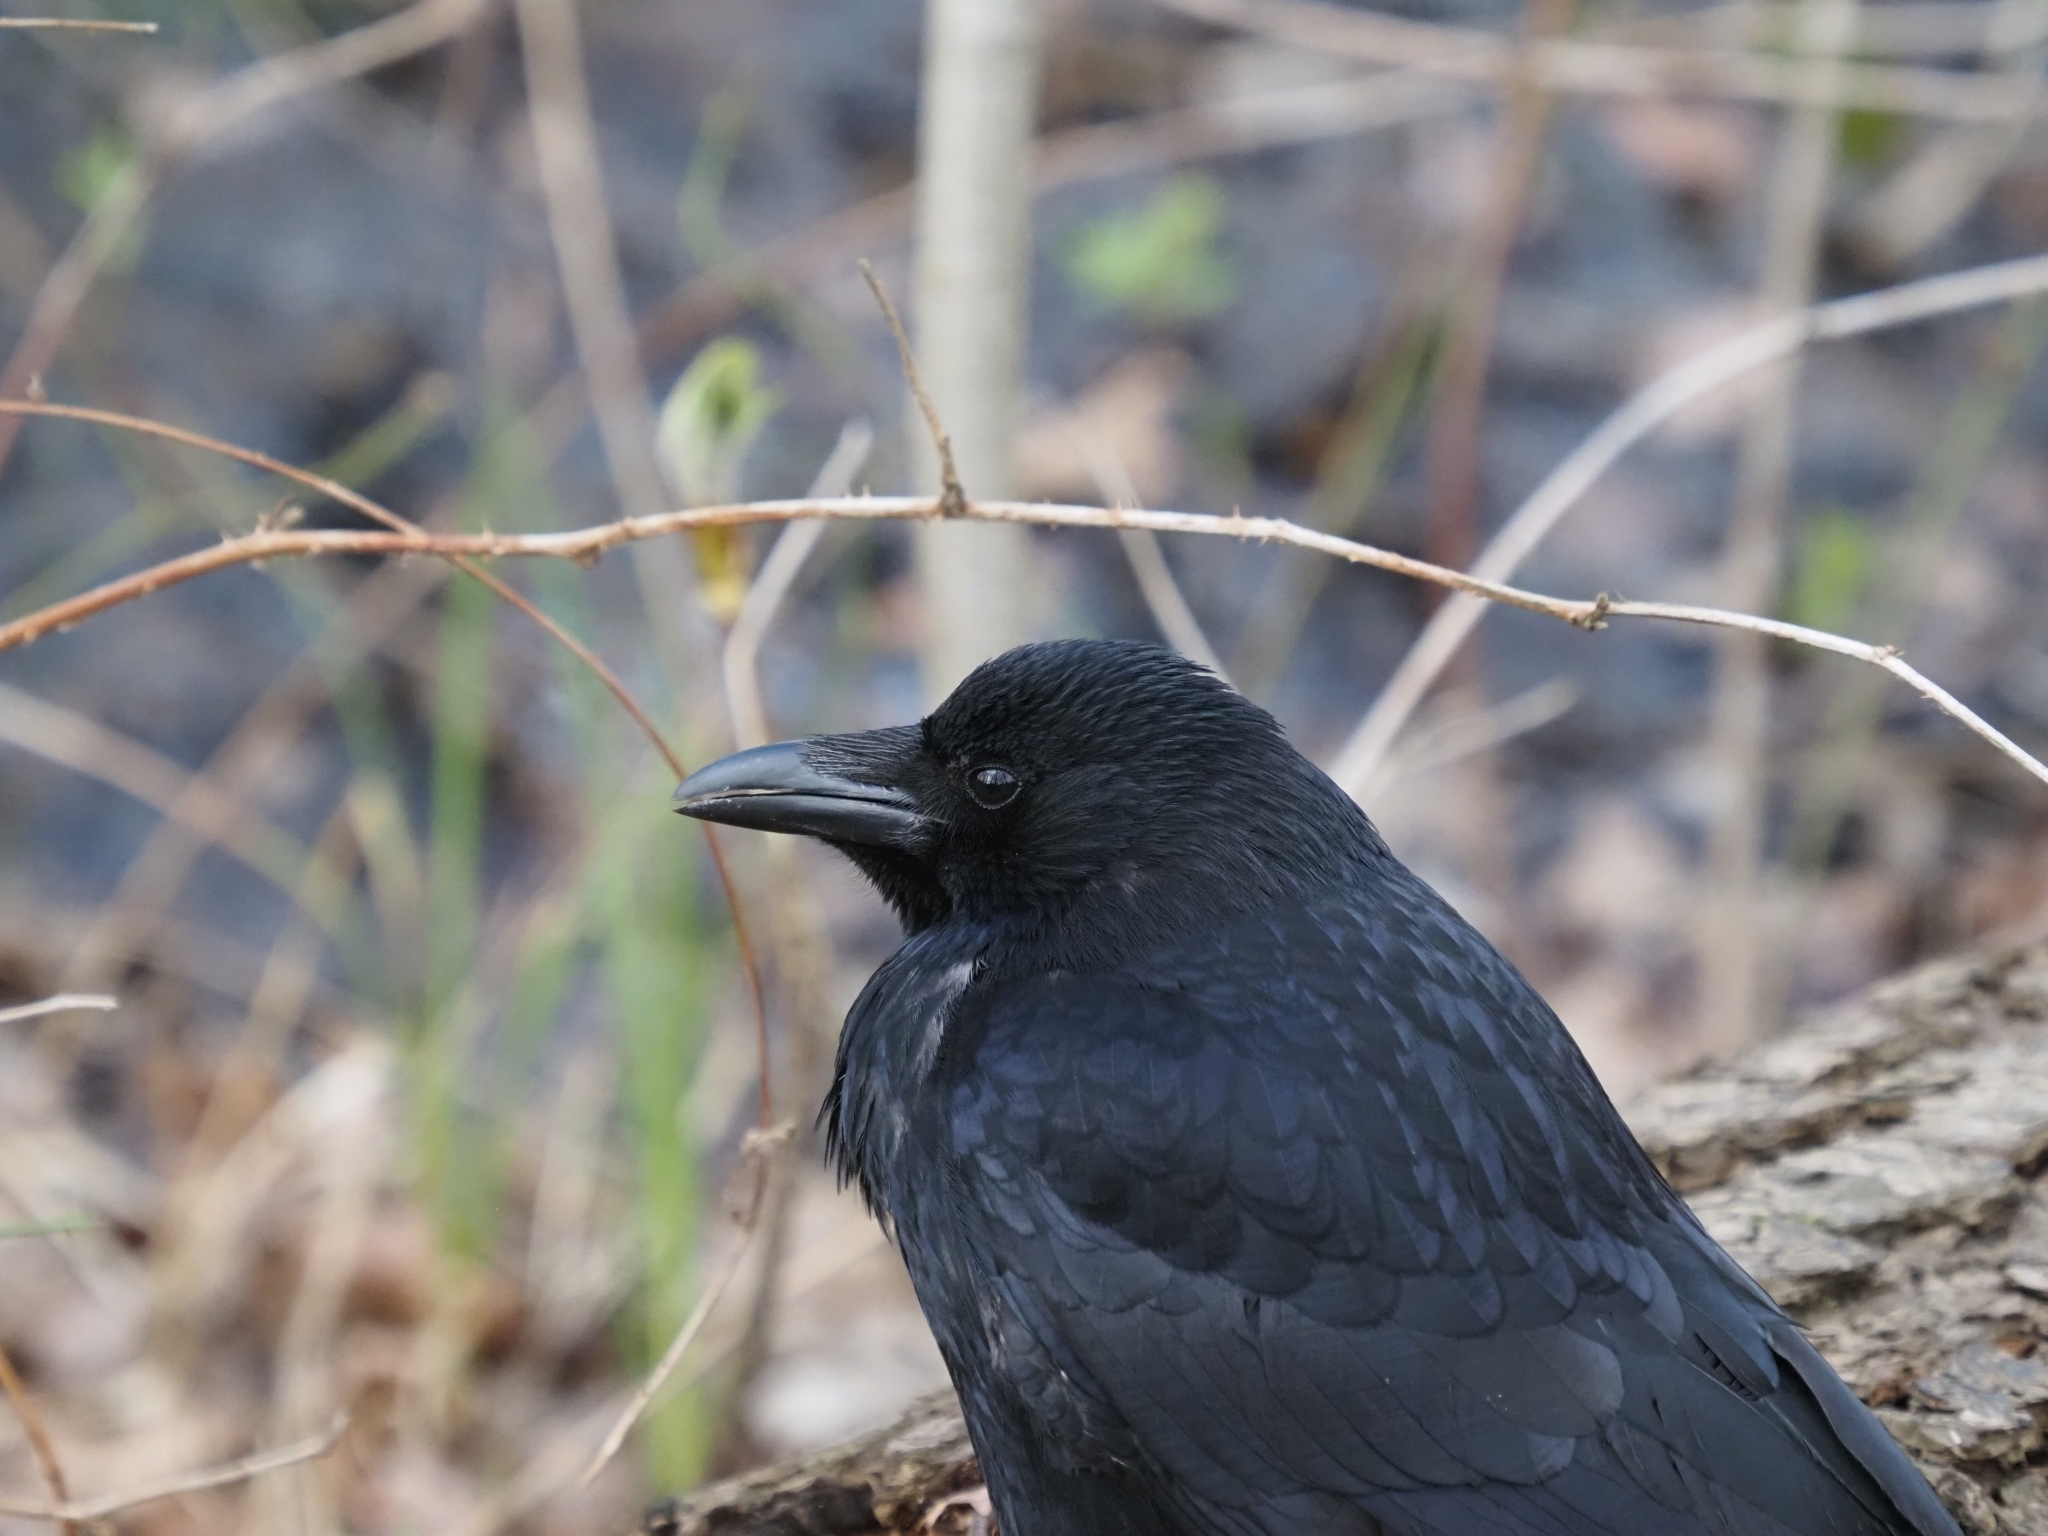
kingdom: Animalia
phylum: Chordata
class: Aves
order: Passeriformes
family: Corvidae
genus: Corvus
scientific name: Corvus corone
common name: Carrion crow
